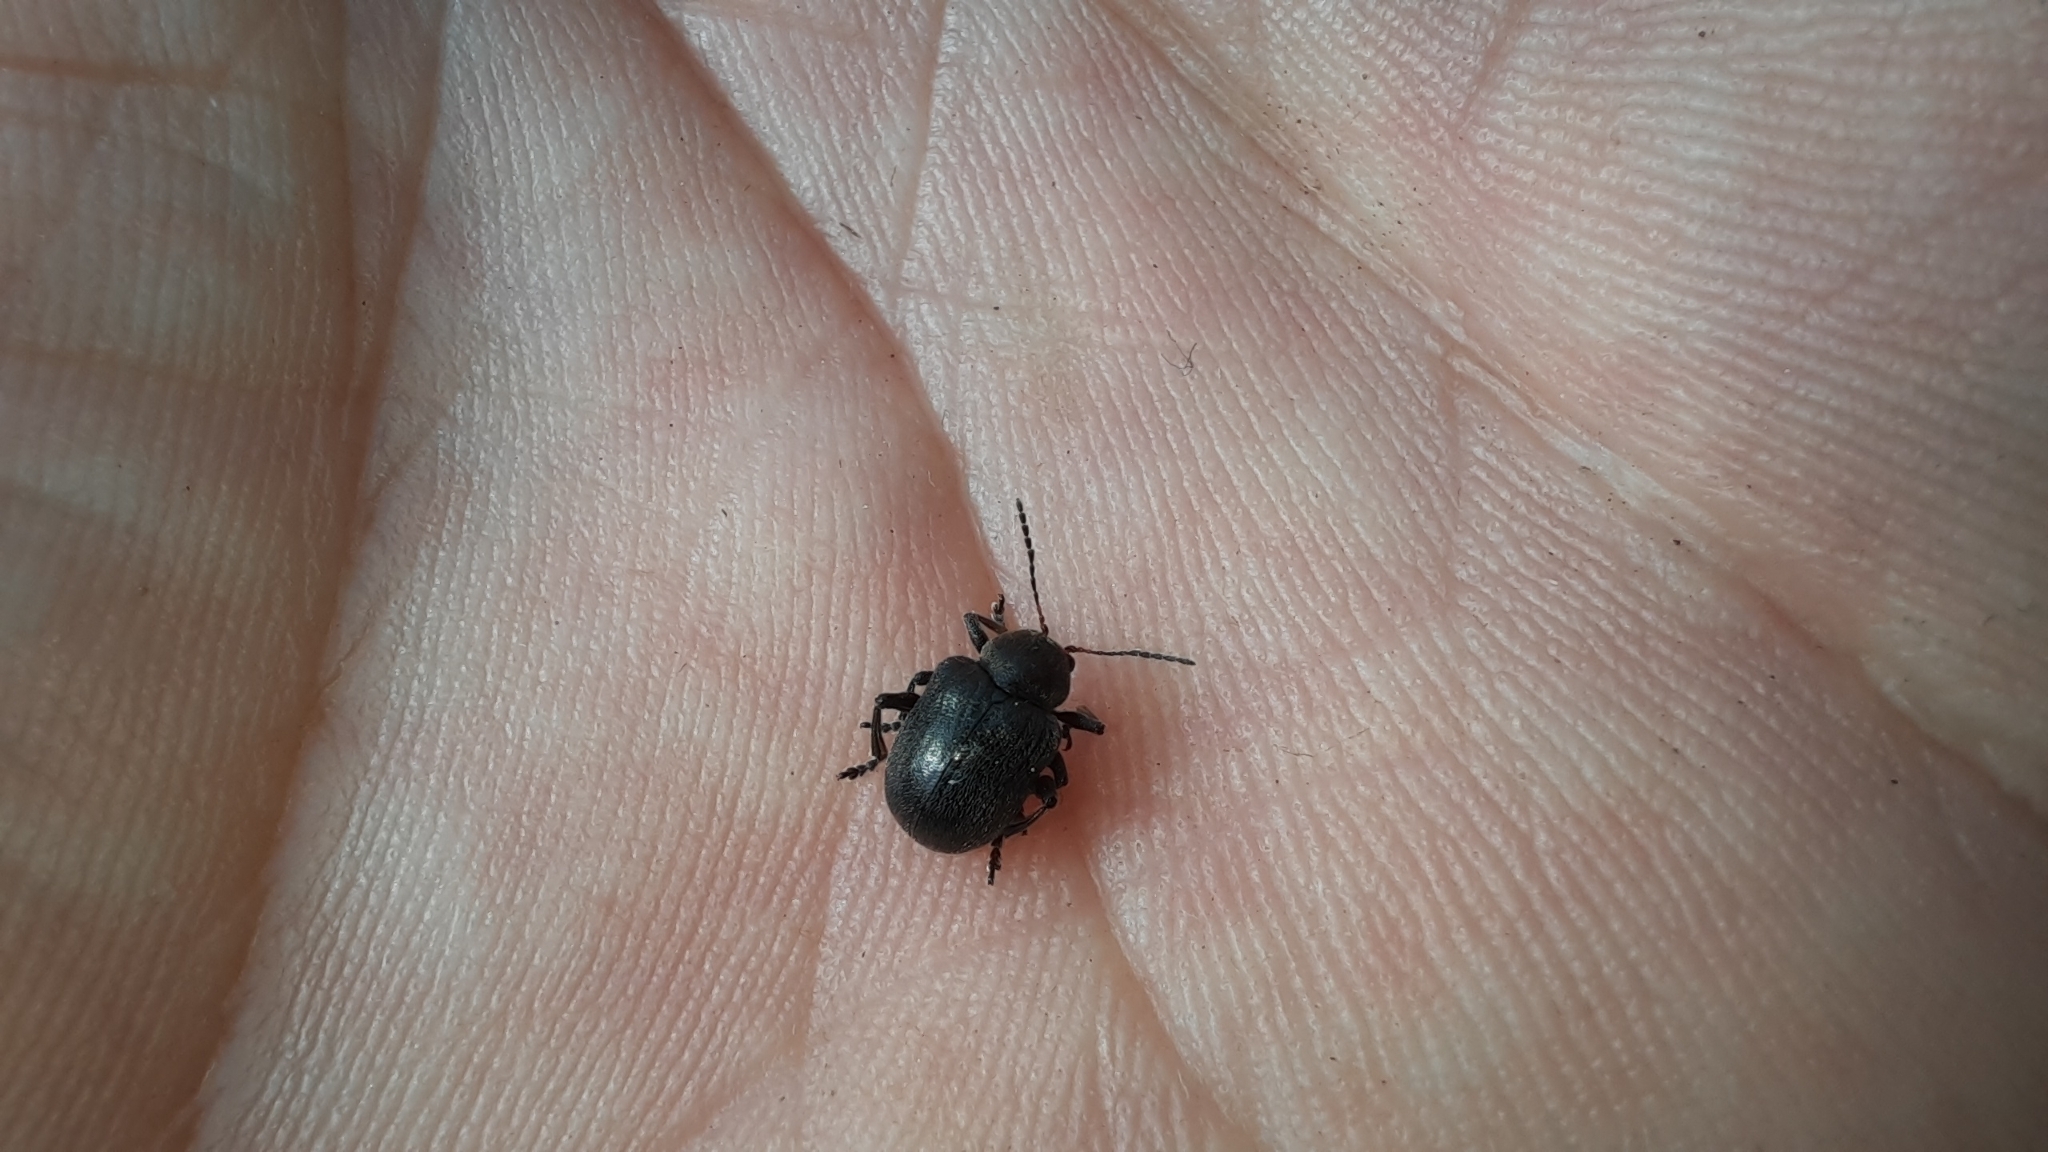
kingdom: Animalia
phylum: Arthropoda
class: Insecta
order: Coleoptera
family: Chrysomelidae
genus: Bromius
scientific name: Bromius obscurus
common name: Western grape rootworm
